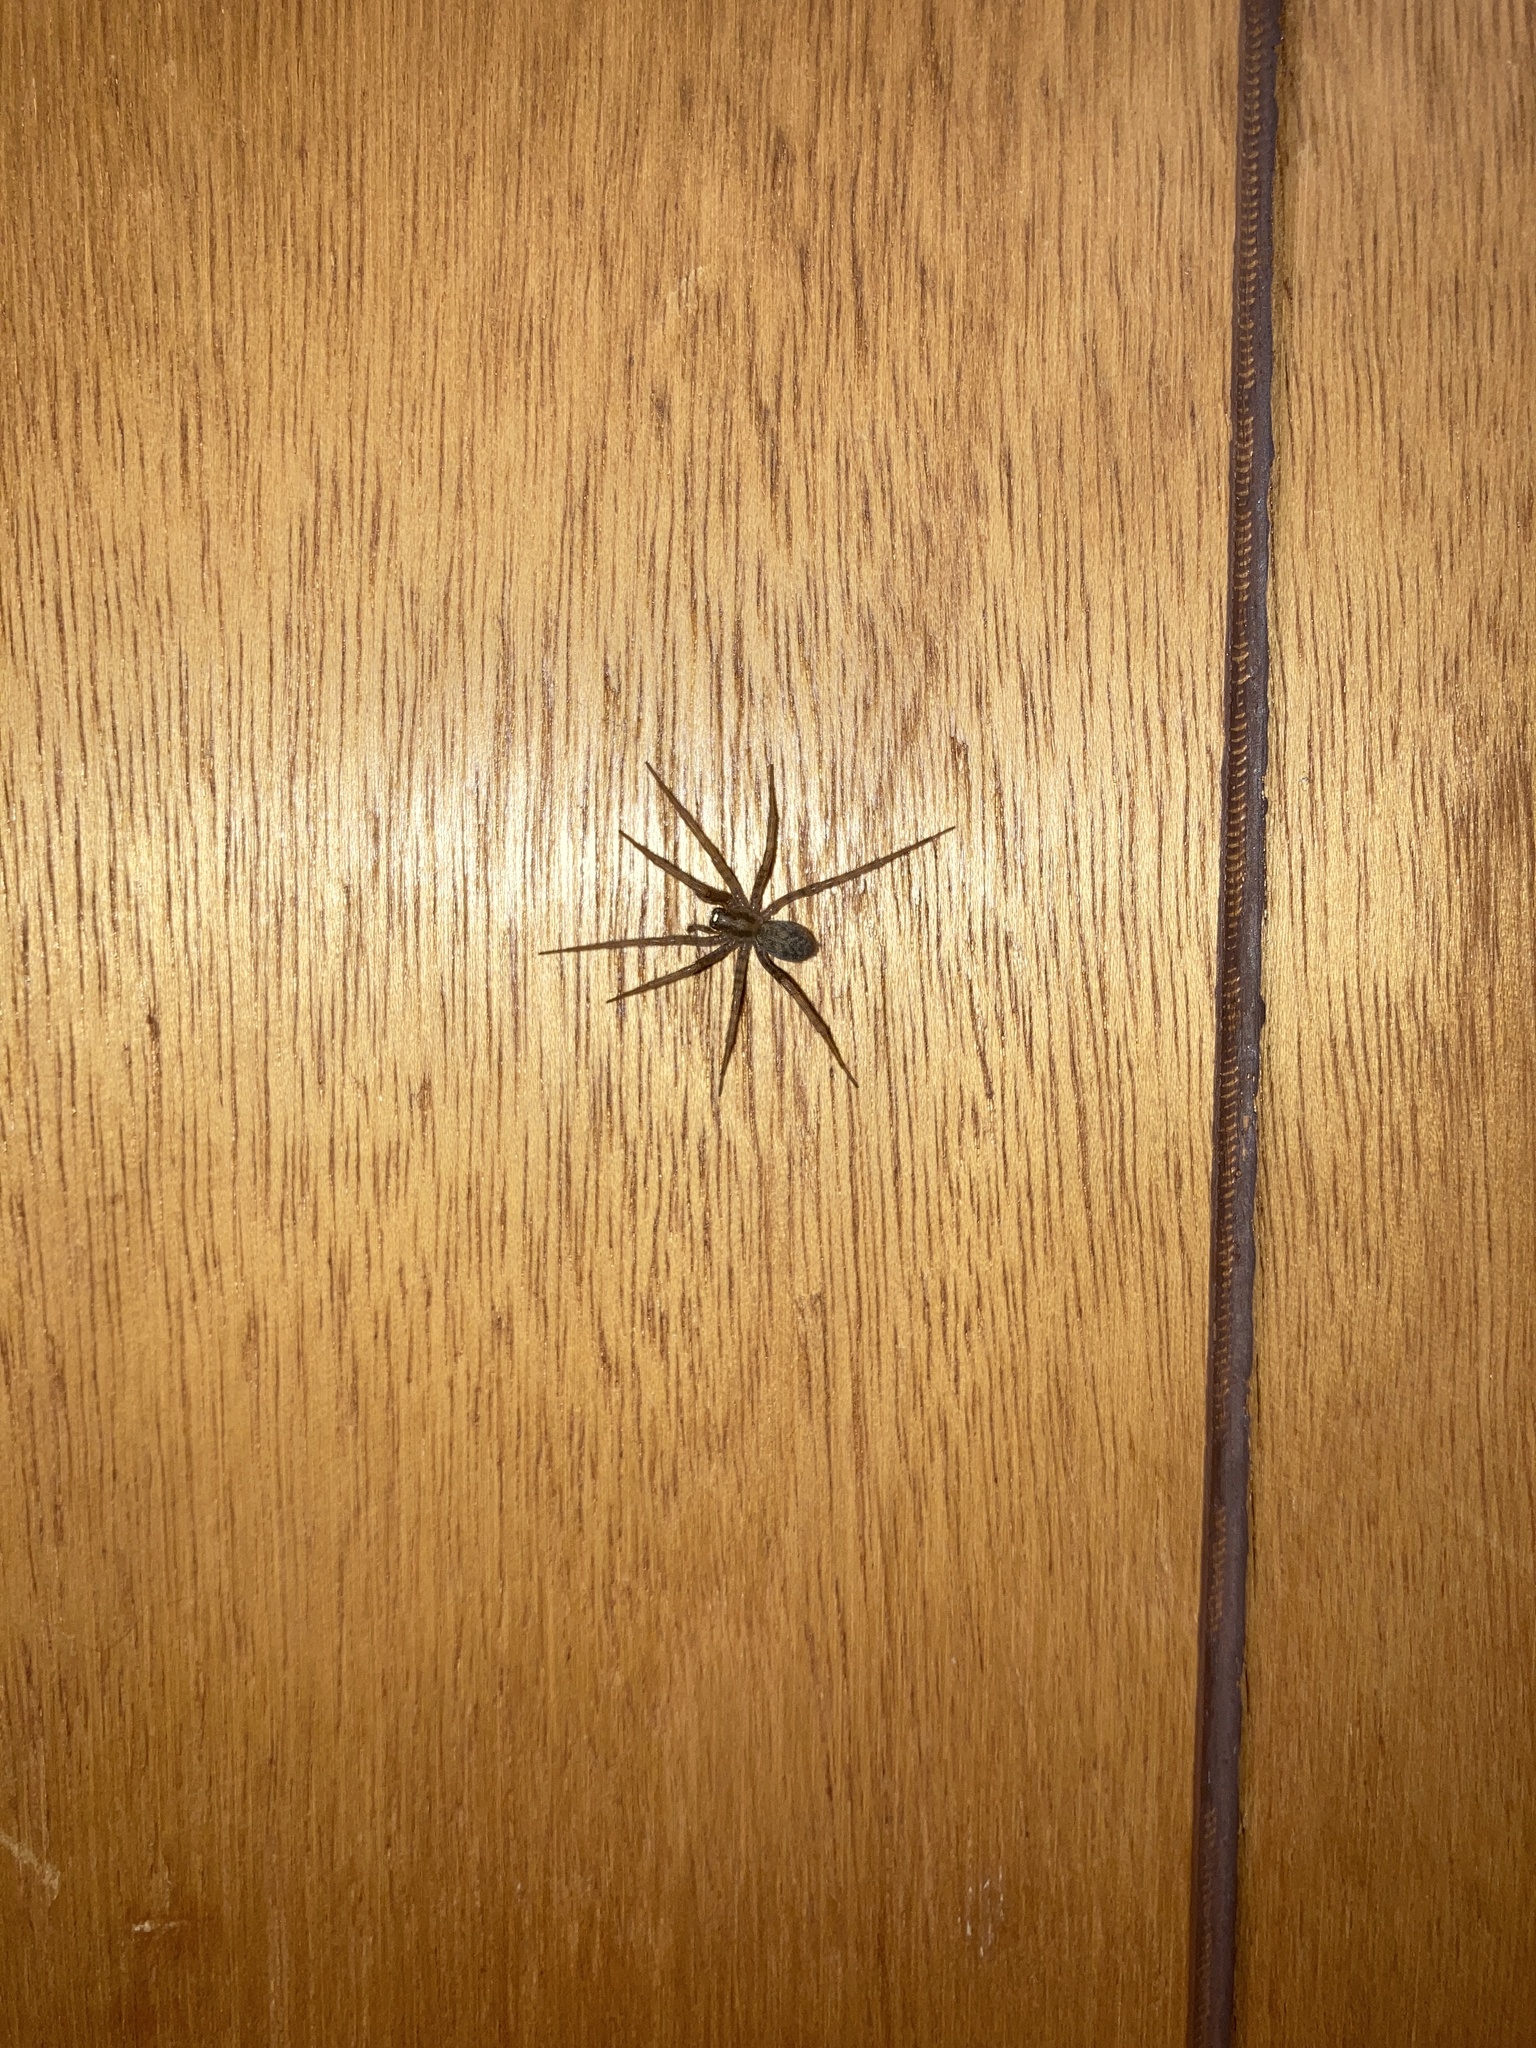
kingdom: Animalia
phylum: Arthropoda
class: Arachnida
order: Araneae
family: Agelenidae
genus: Tegenaria
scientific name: Tegenaria domestica
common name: Barn funnel weaver
